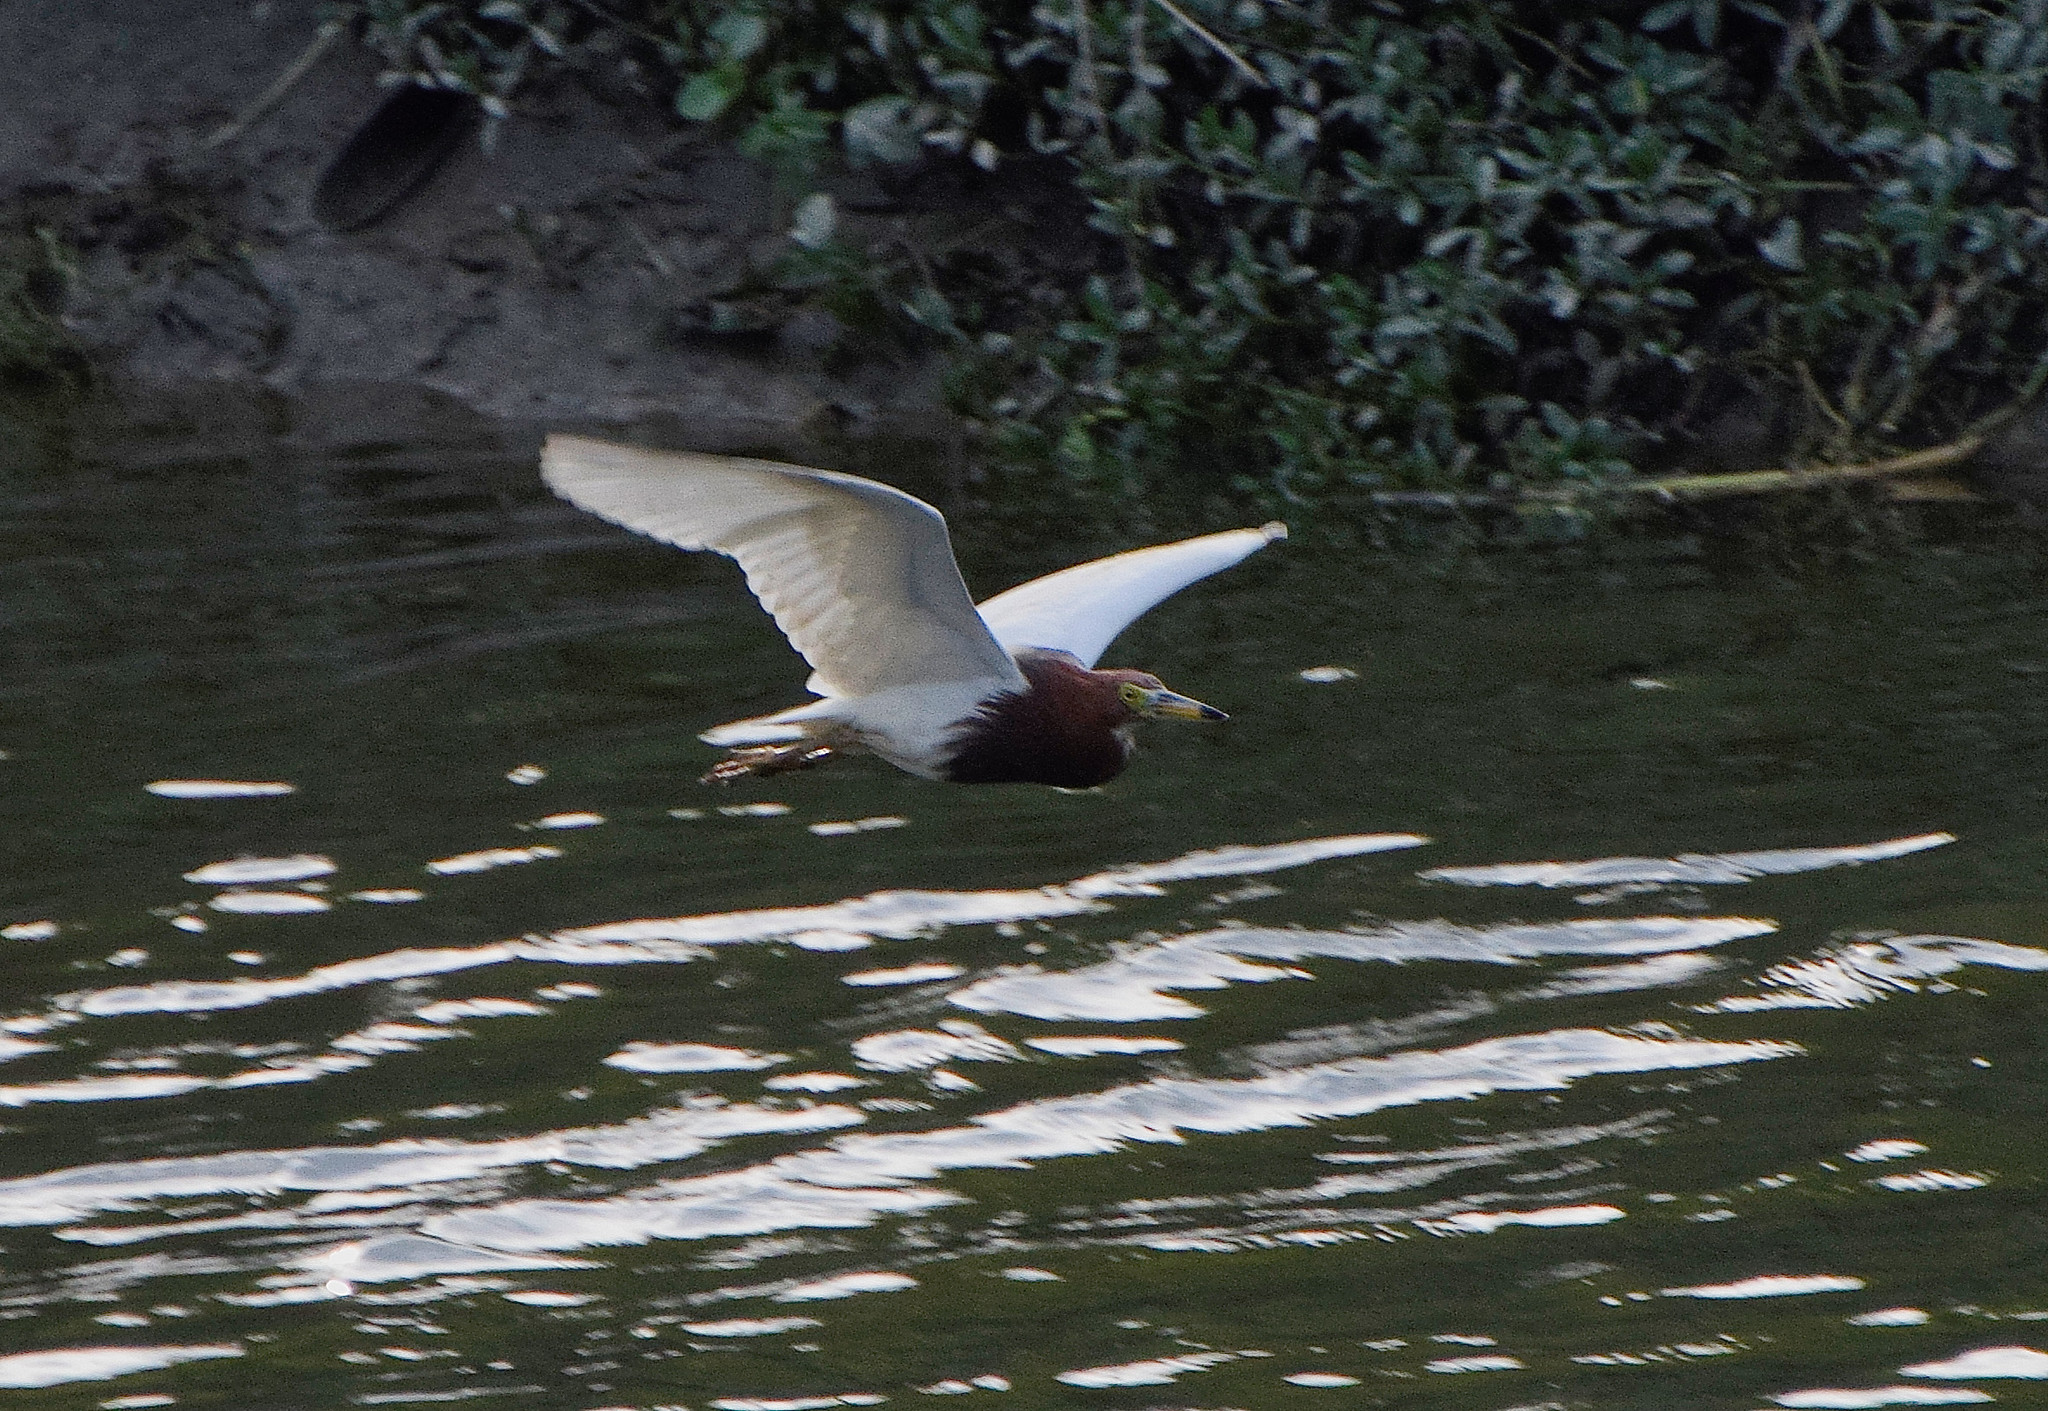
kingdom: Animalia
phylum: Chordata
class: Aves
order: Pelecaniformes
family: Ardeidae
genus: Ardeola
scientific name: Ardeola bacchus
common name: Chinese pond heron
